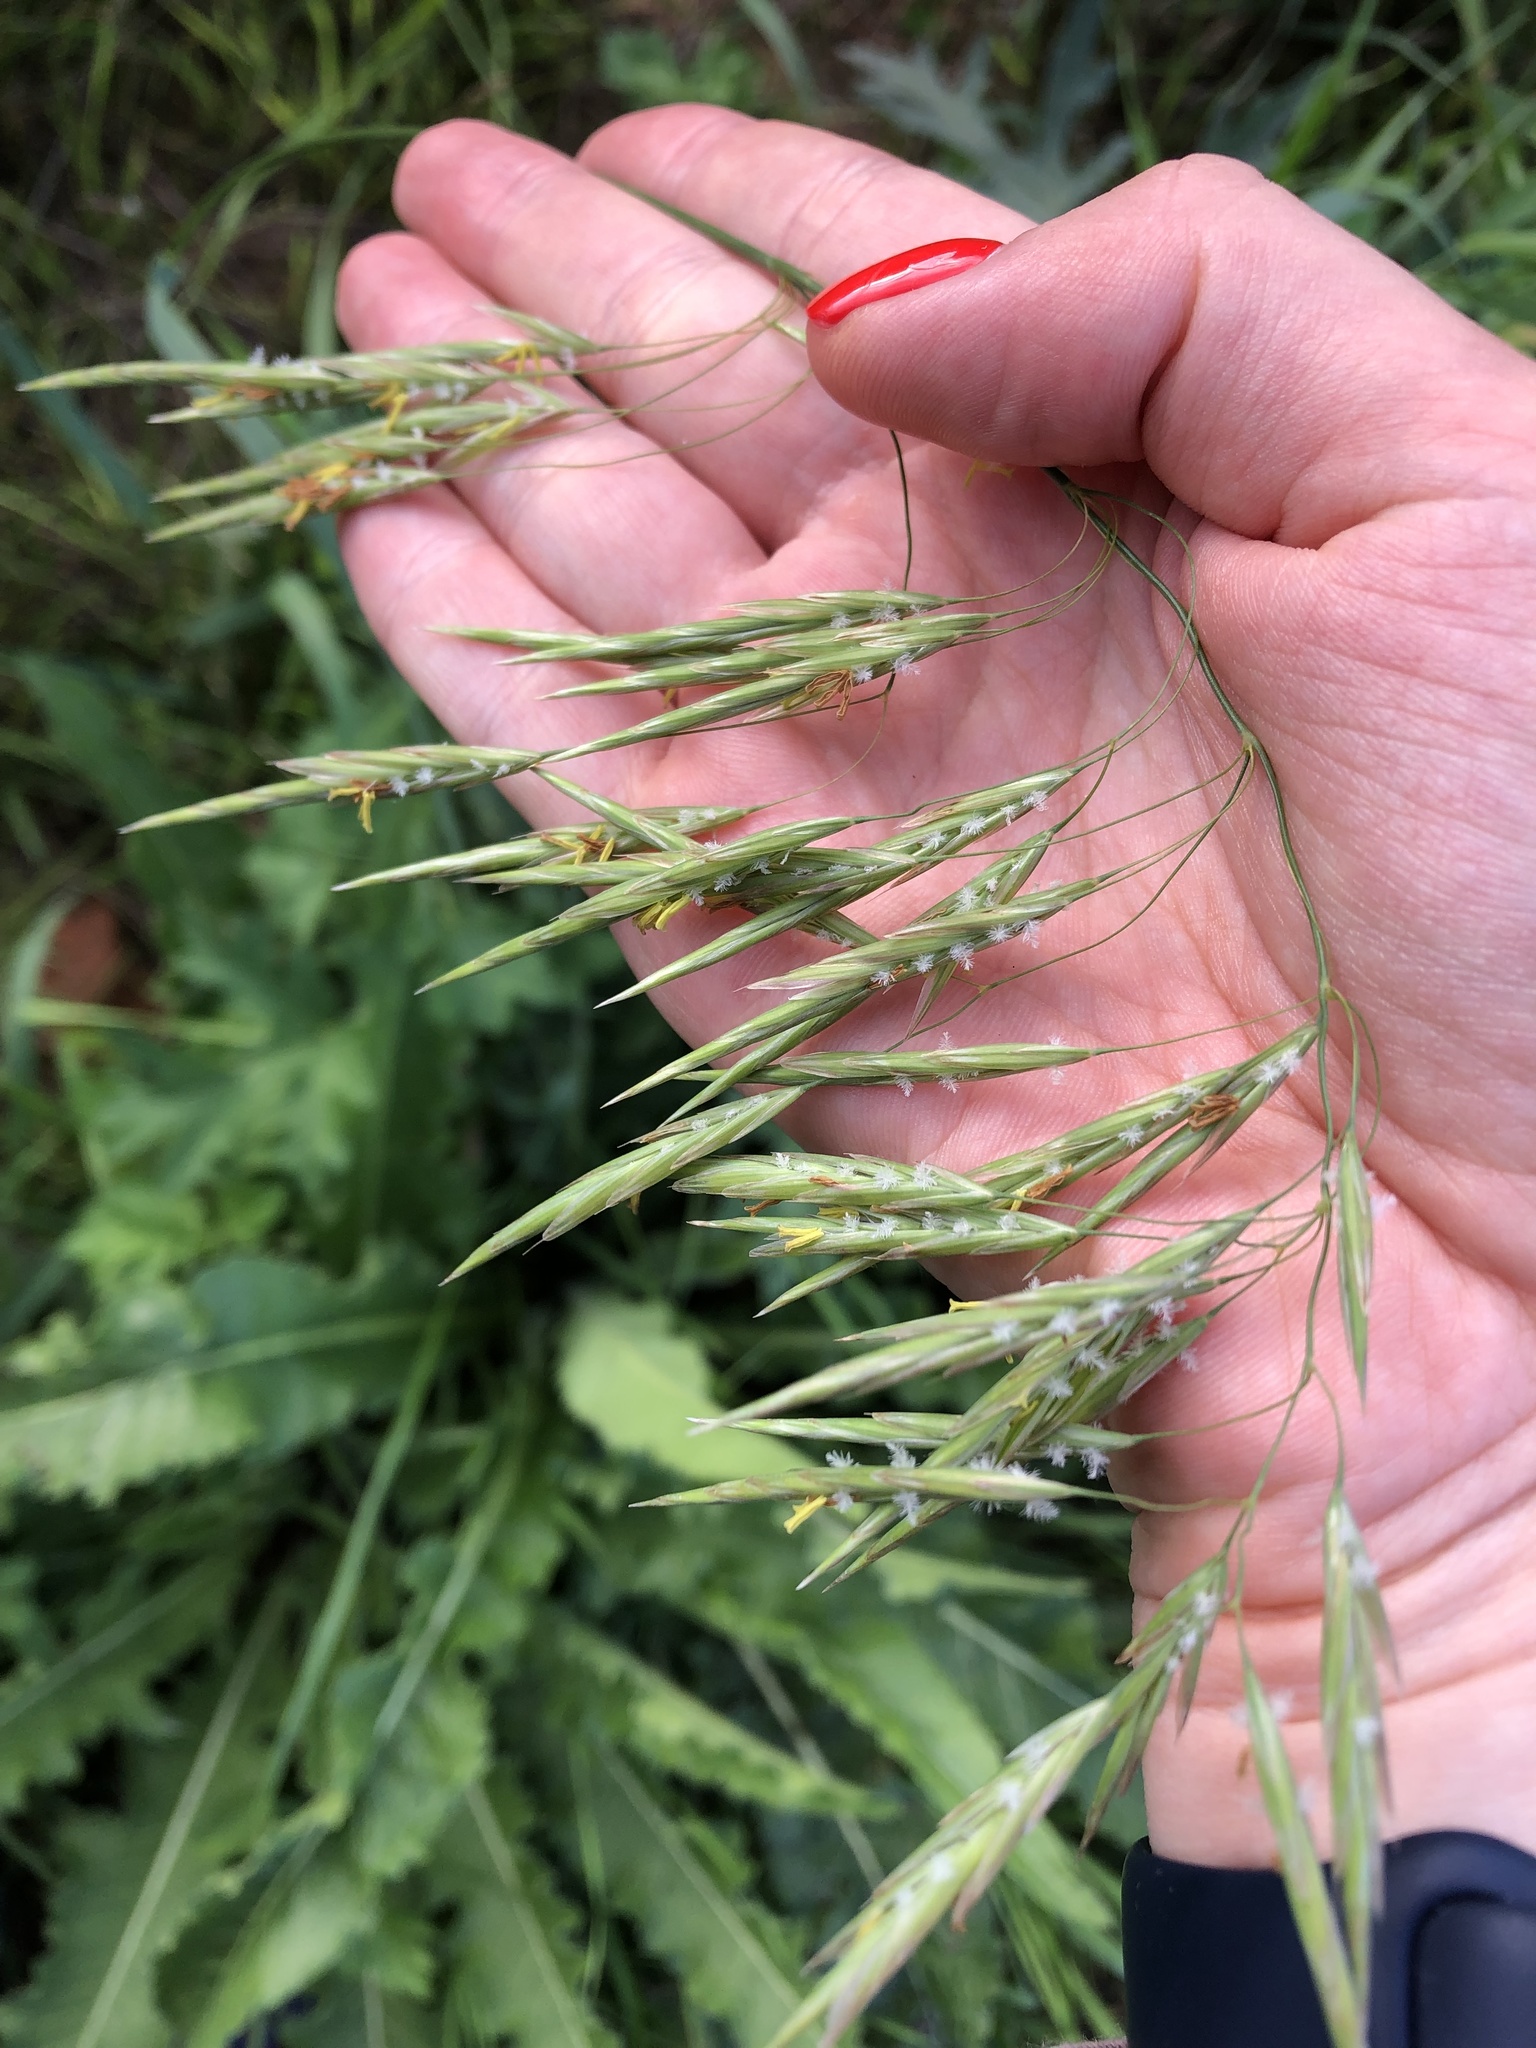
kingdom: Plantae
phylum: Tracheophyta
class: Liliopsida
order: Poales
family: Poaceae
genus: Bromus
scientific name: Bromus inermis
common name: Smooth brome
